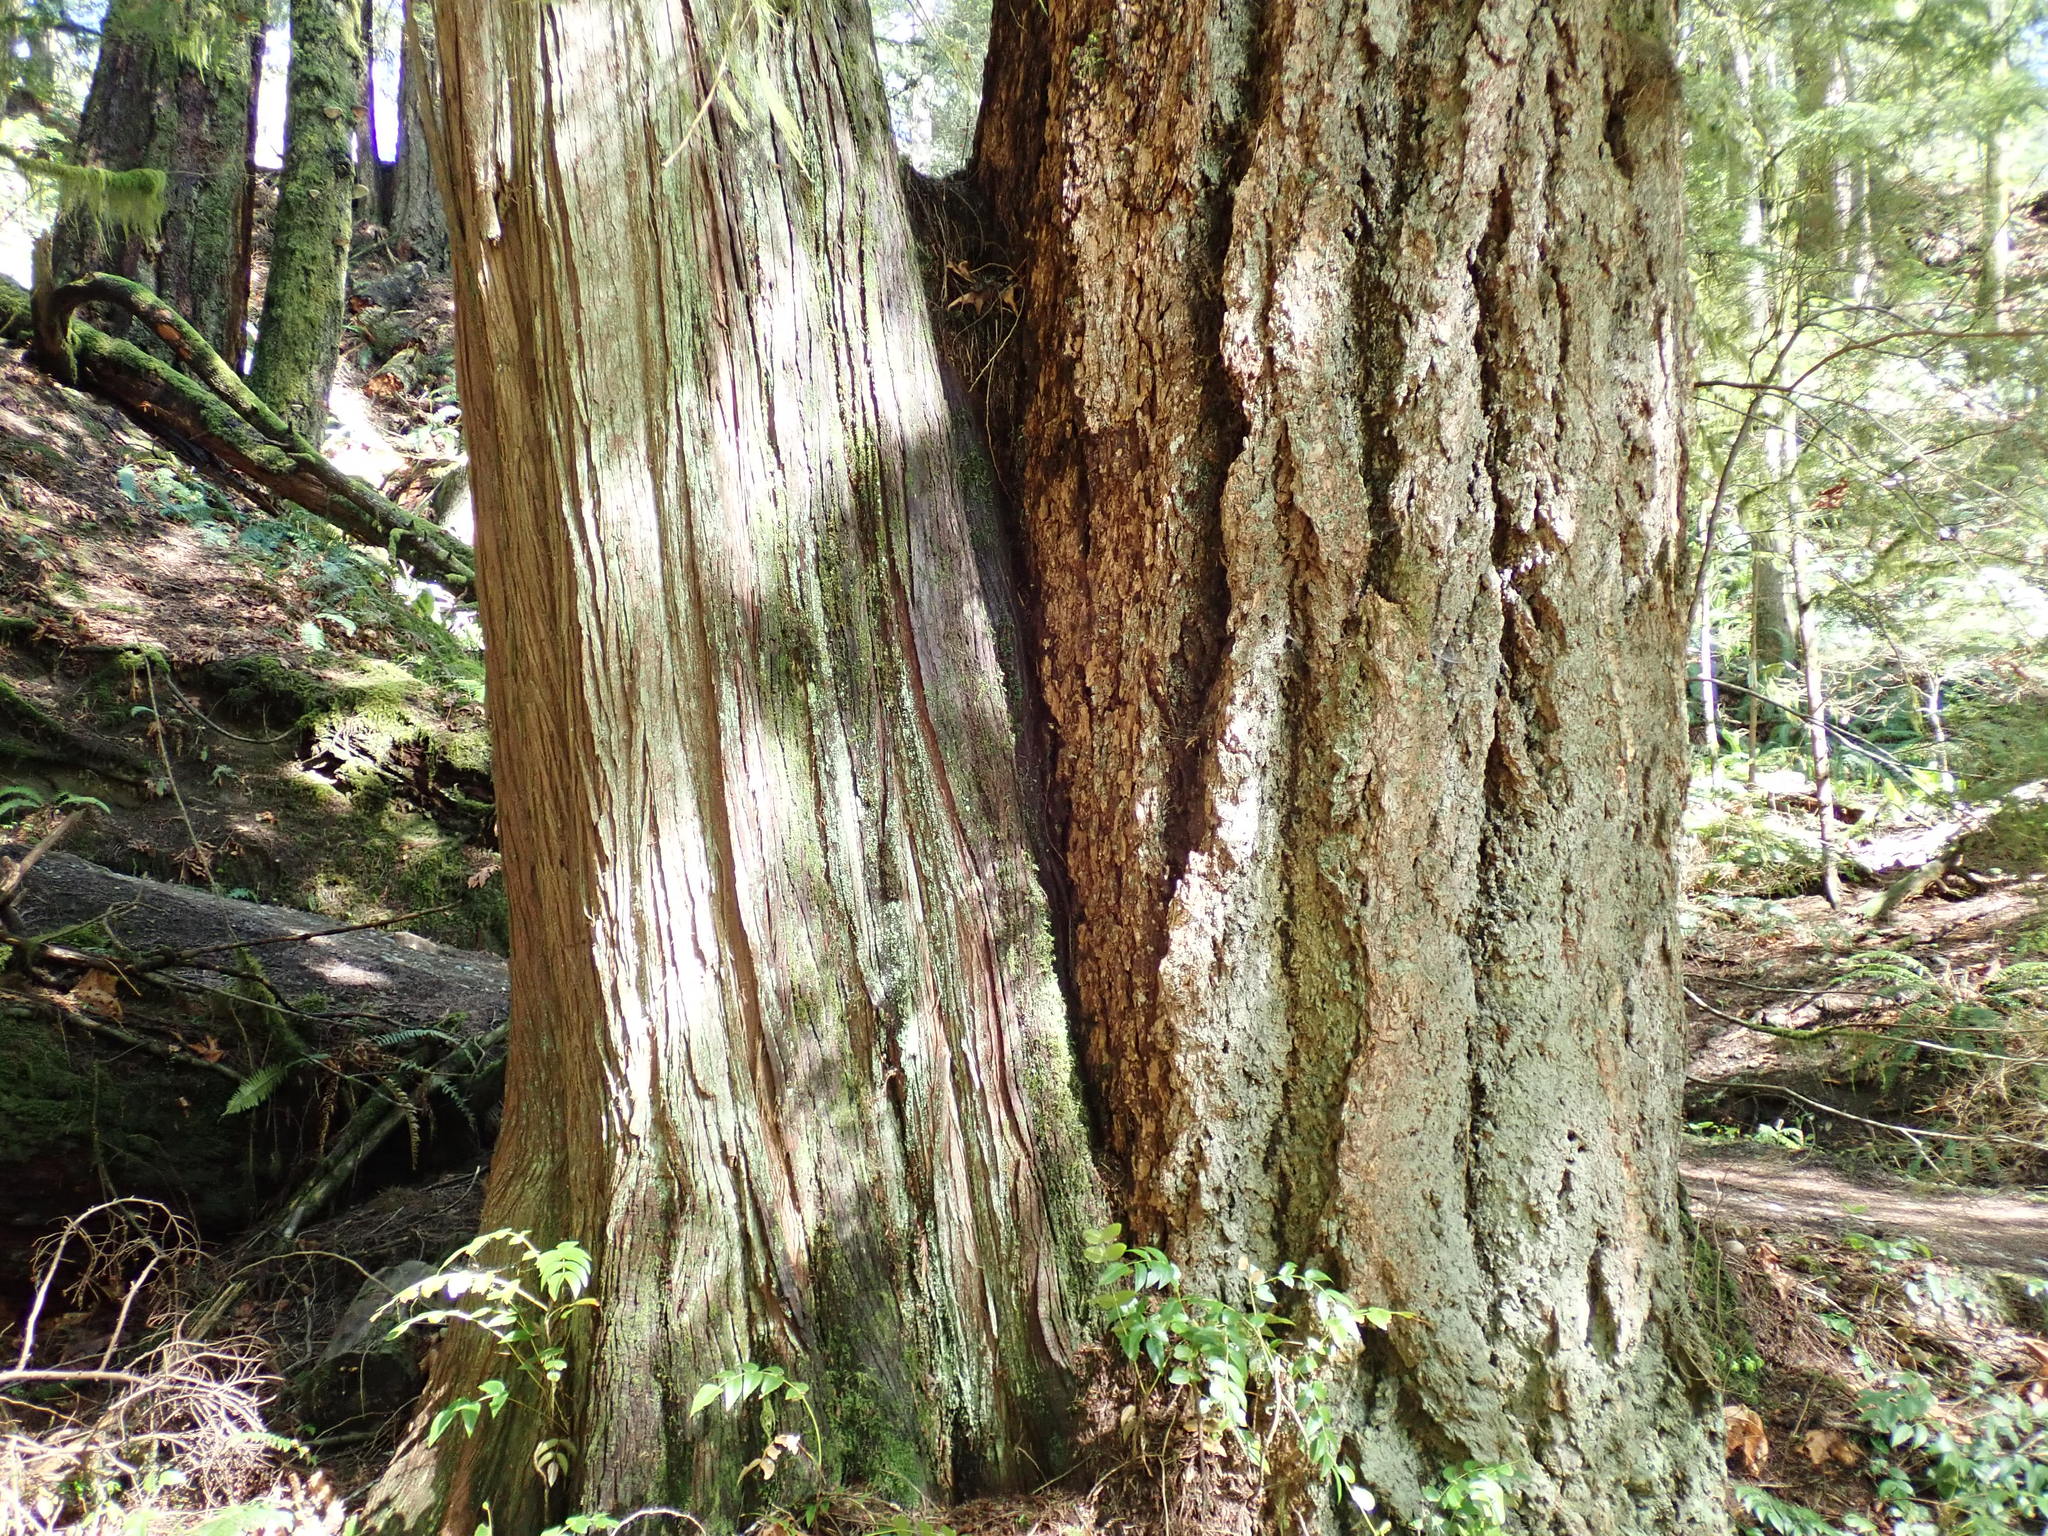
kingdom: Plantae
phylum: Tracheophyta
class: Pinopsida
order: Pinales
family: Pinaceae
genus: Pseudotsuga
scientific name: Pseudotsuga menziesii
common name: Douglas fir
